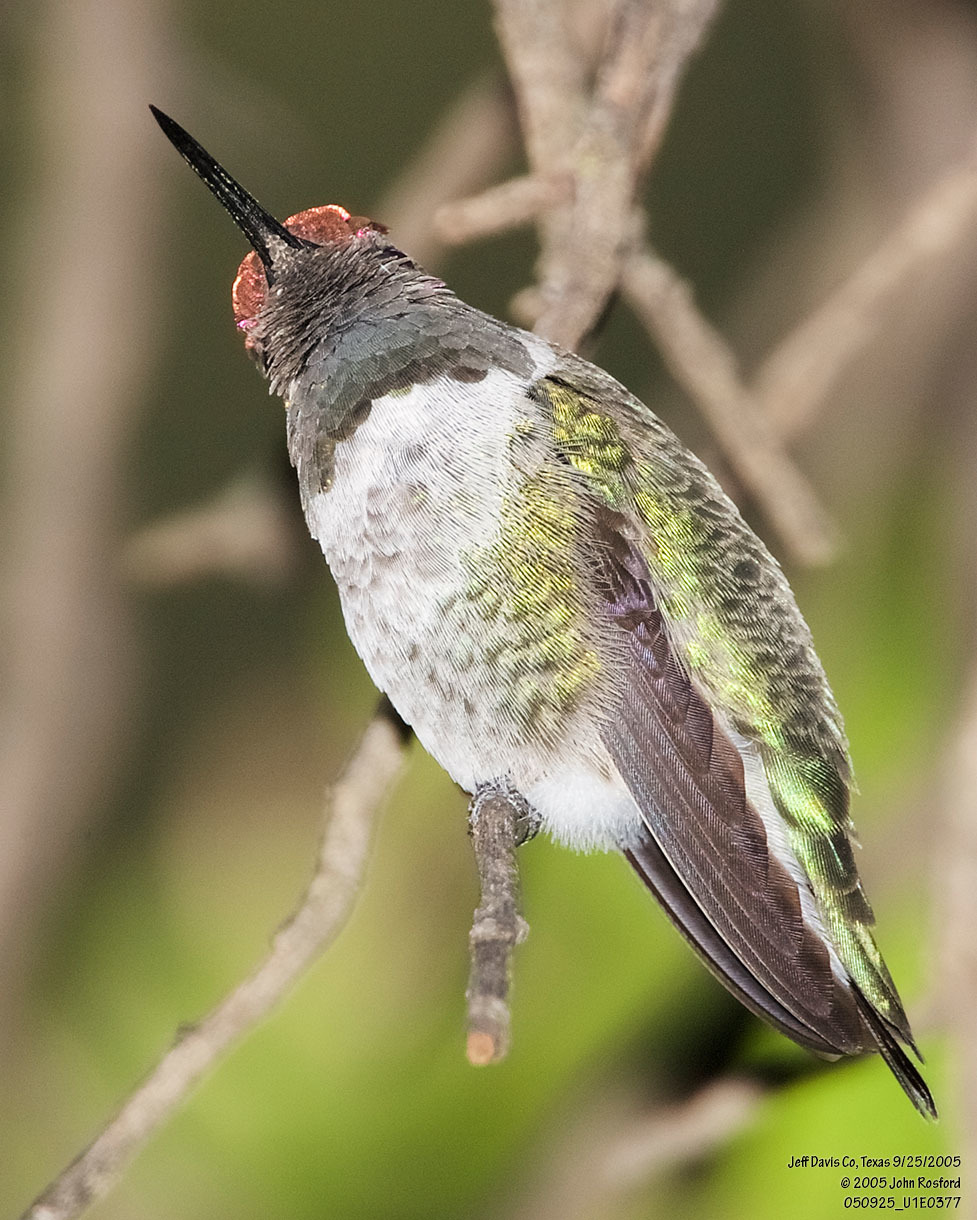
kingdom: Animalia
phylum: Chordata
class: Aves
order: Apodiformes
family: Trochilidae
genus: Calypte
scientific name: Calypte anna
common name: Anna's hummingbird
